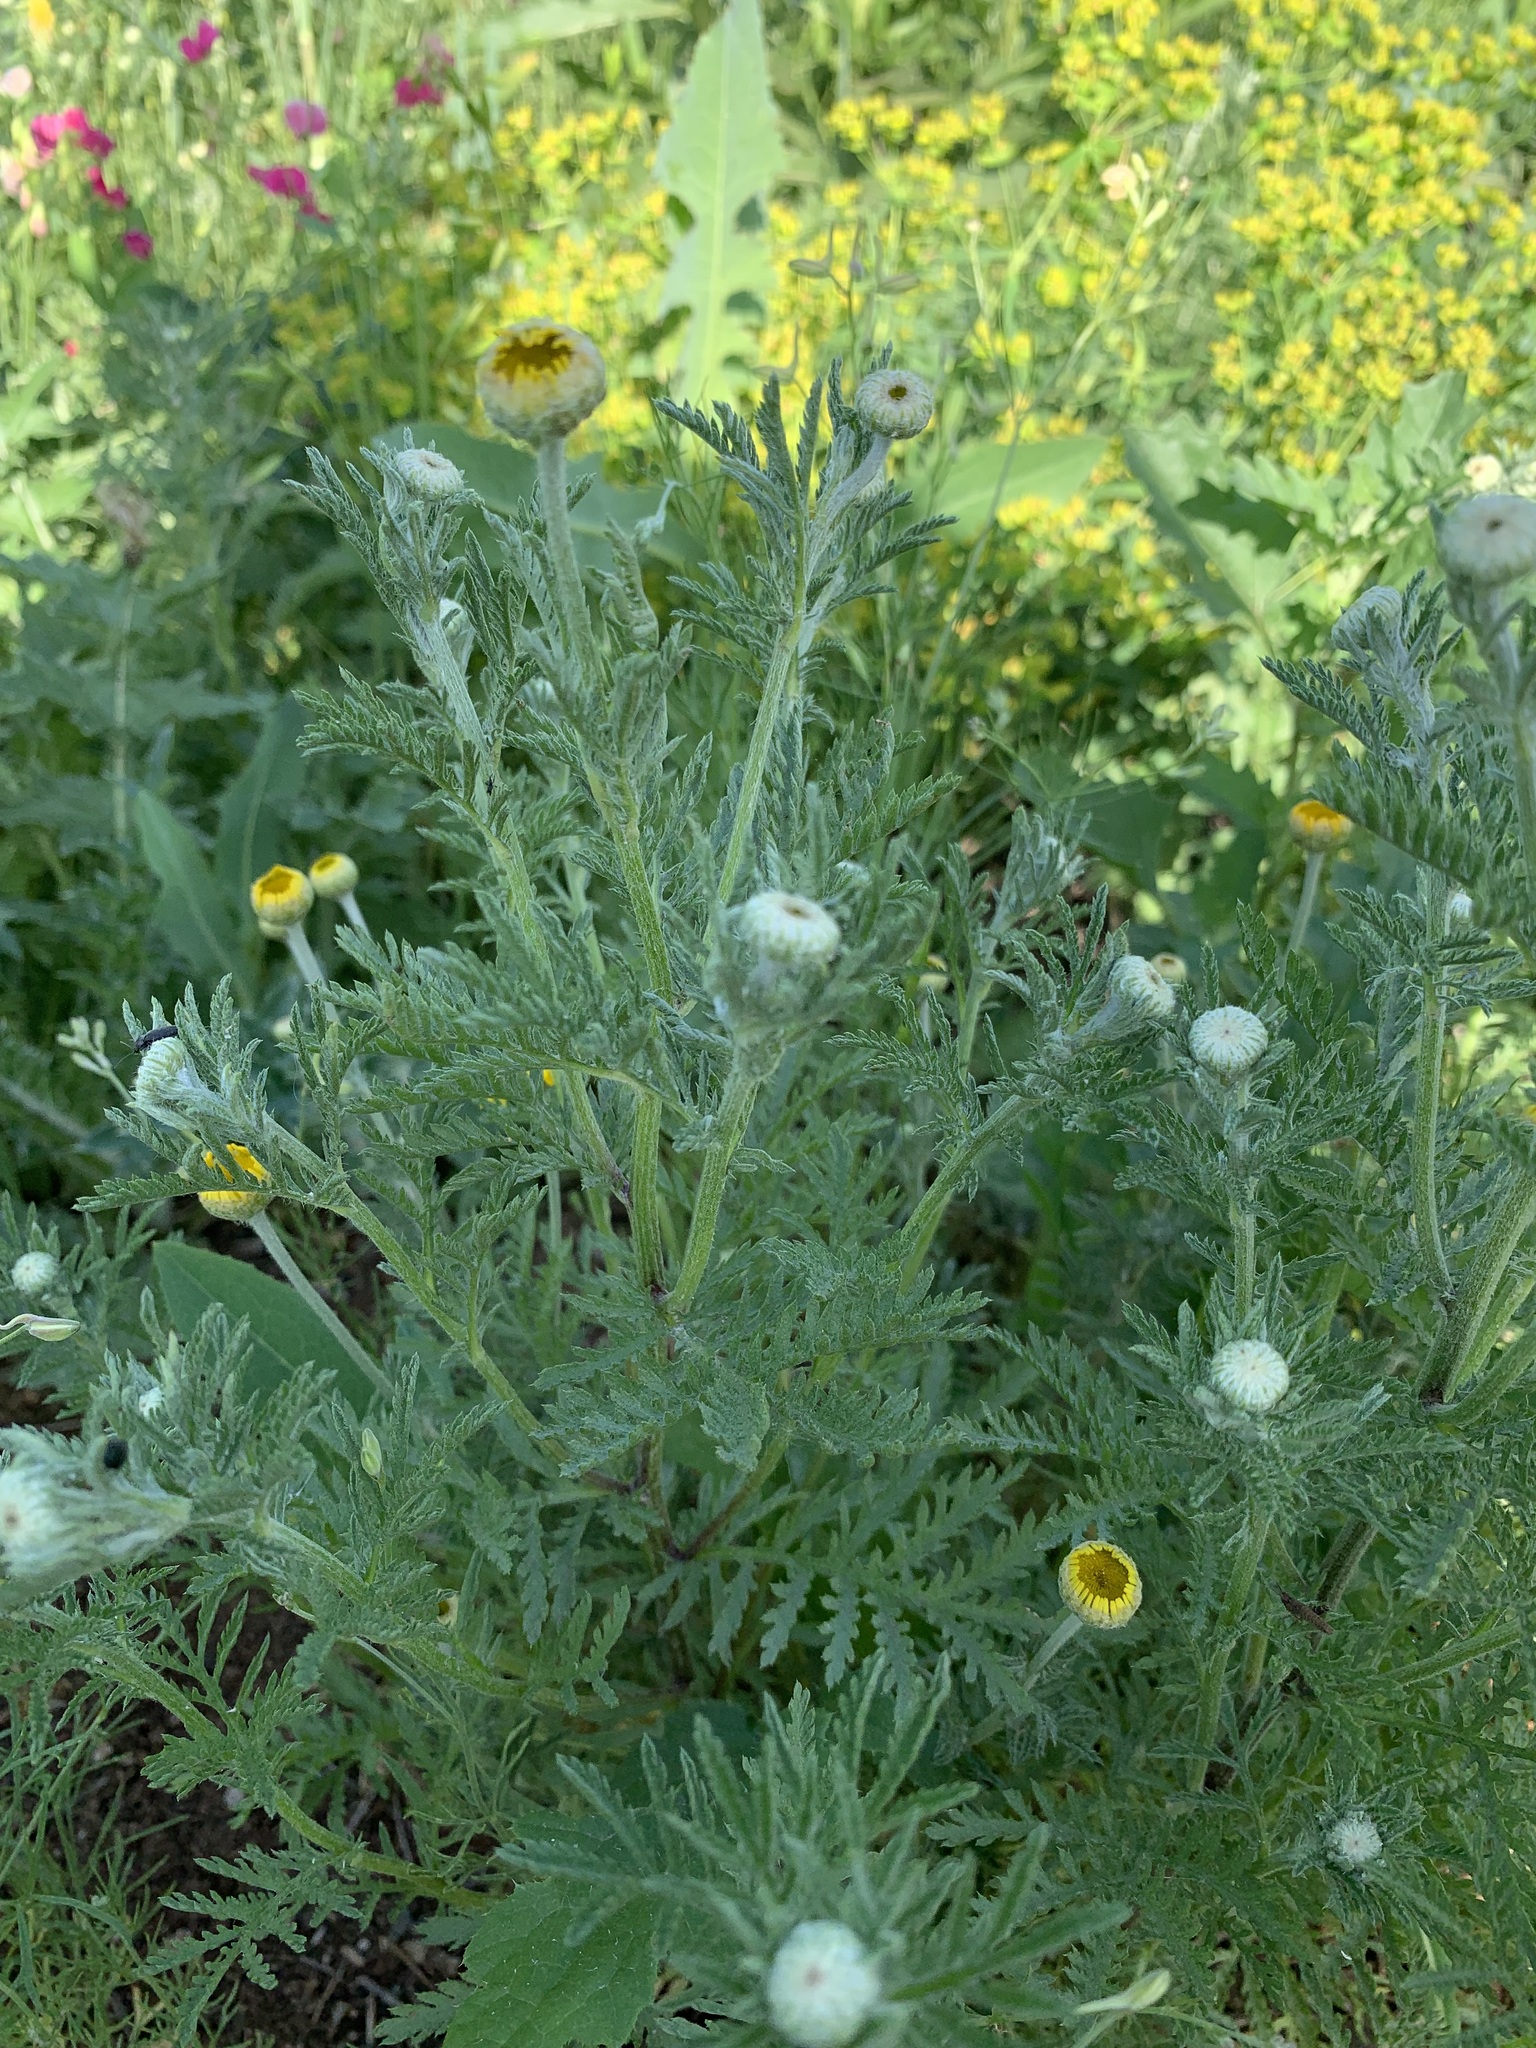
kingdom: Plantae
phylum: Tracheophyta
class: Magnoliopsida
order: Asterales
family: Asteraceae
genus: Cota
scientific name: Cota tinctoria
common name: Golden chamomile
